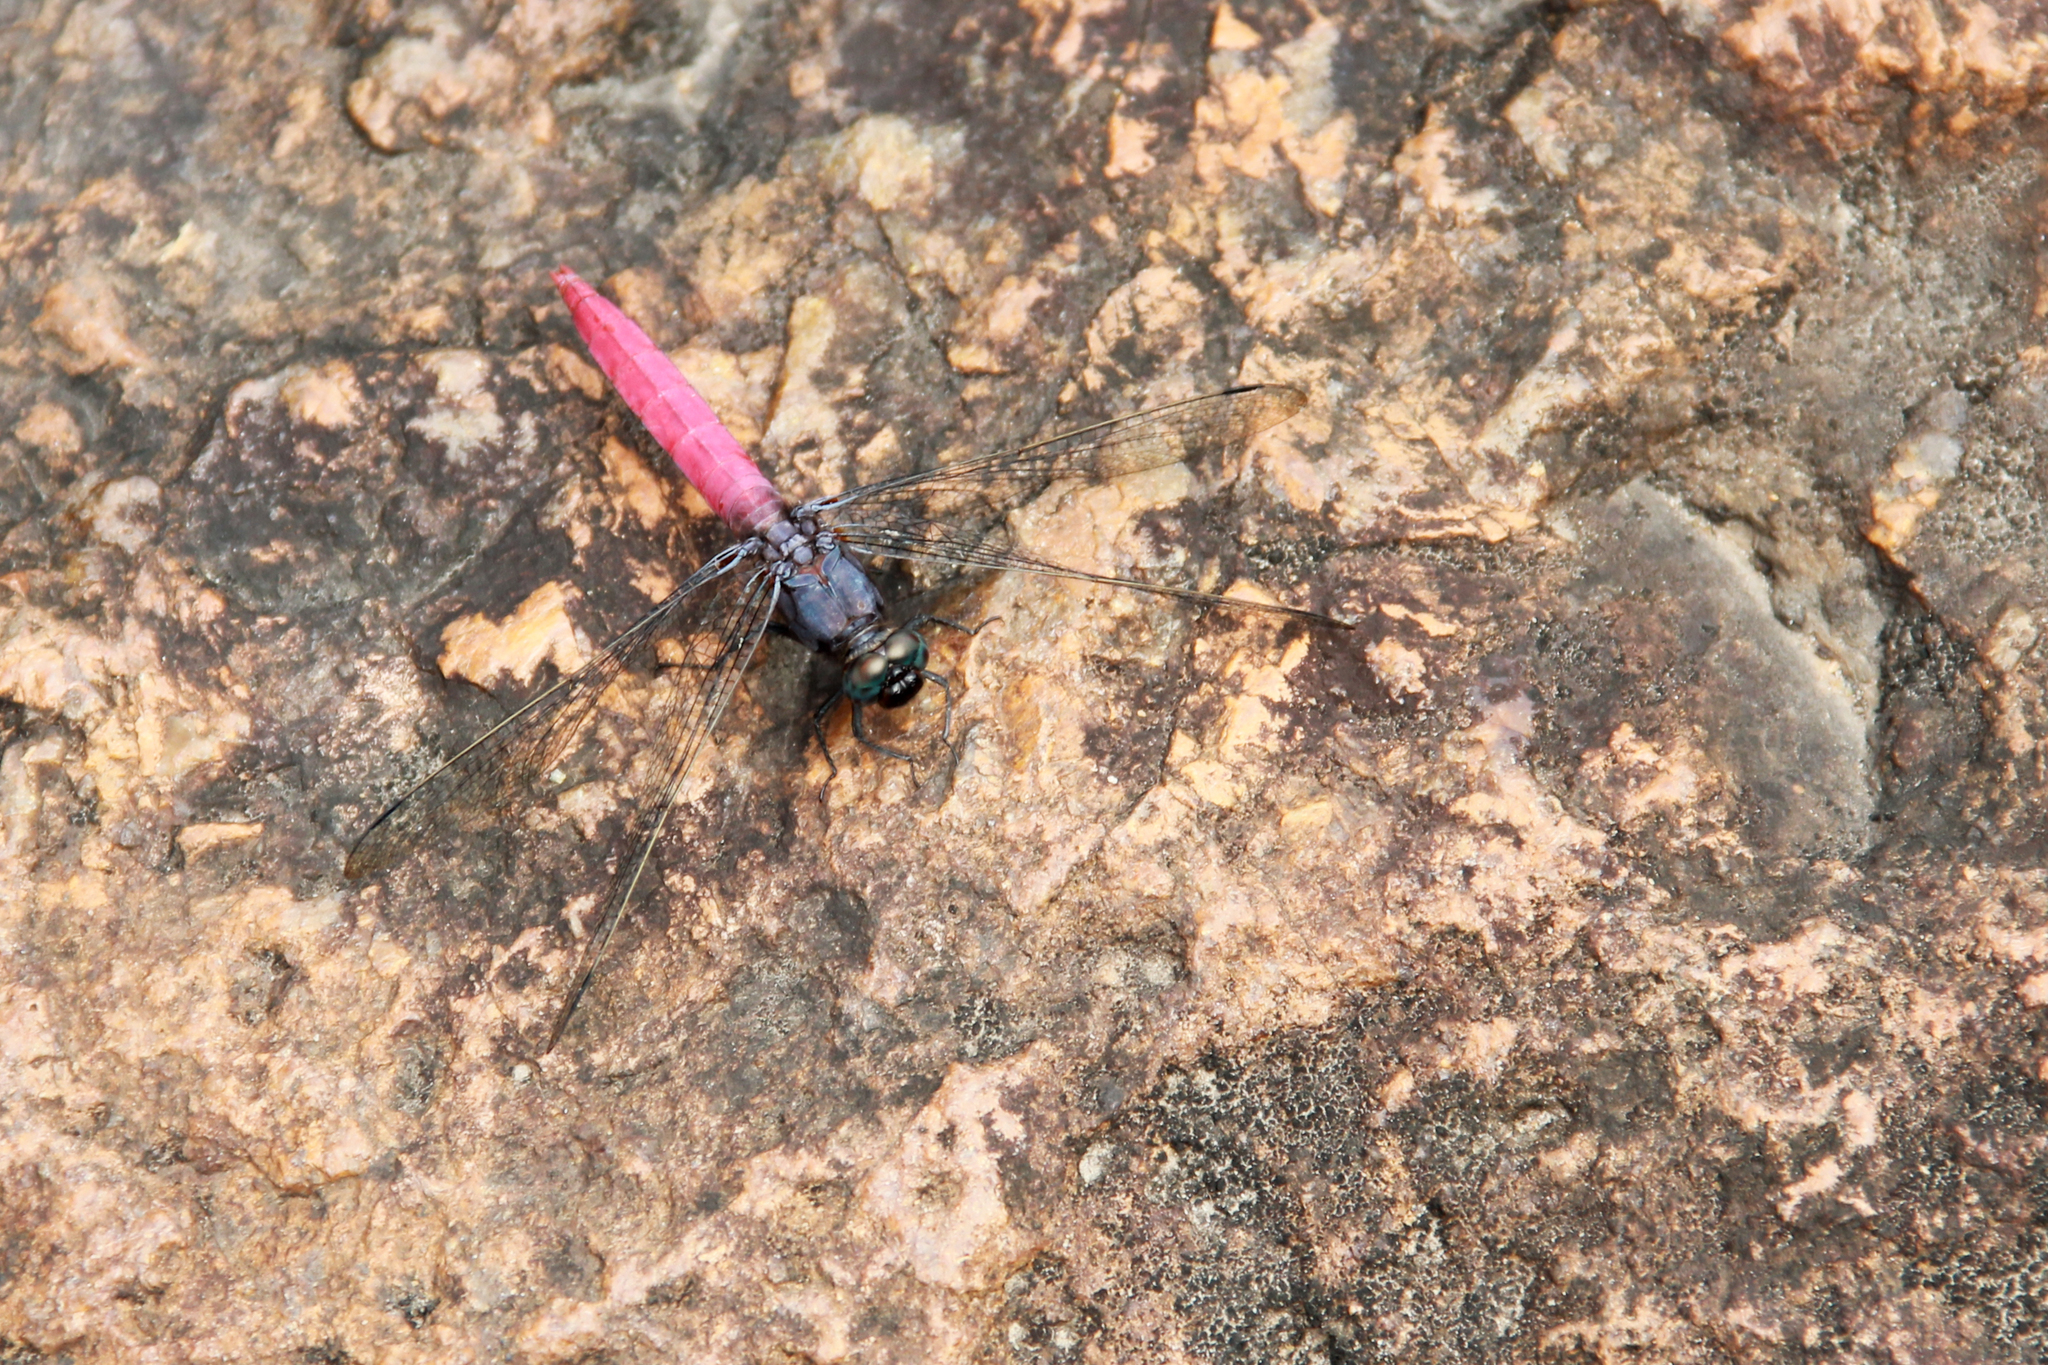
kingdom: Animalia
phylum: Arthropoda
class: Insecta
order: Odonata
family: Libellulidae
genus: Orthetrum
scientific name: Orthetrum pruinosum
